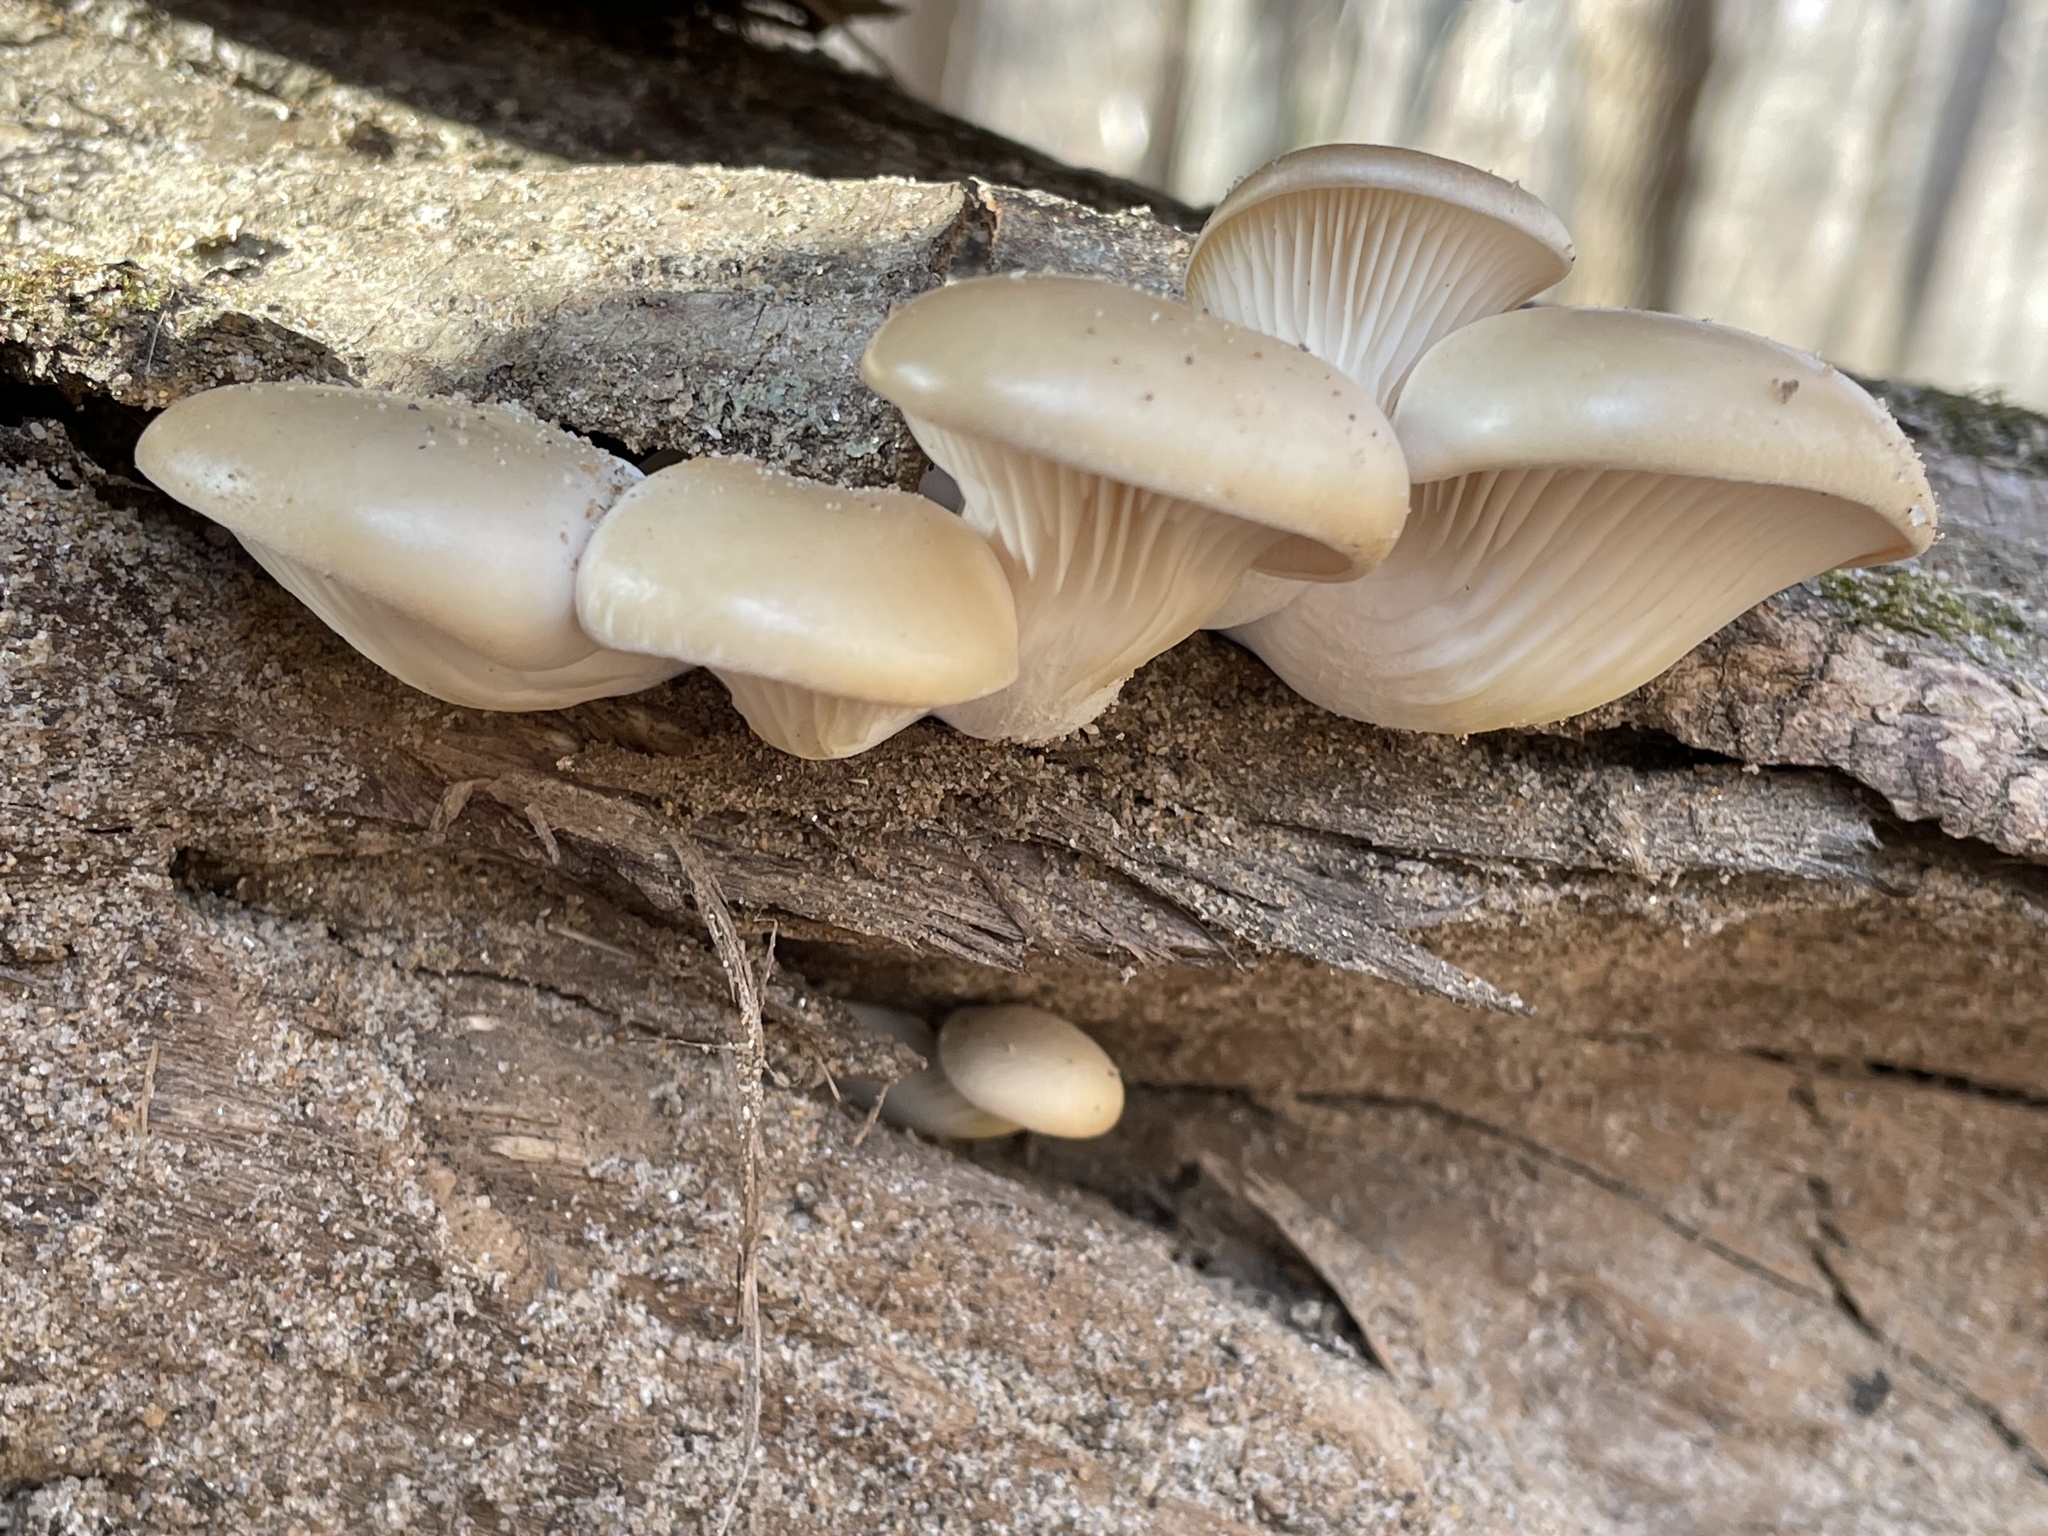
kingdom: Fungi
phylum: Basidiomycota
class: Agaricomycetes
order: Agaricales
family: Pleurotaceae
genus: Pleurotus
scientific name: Pleurotus ostreatus
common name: Oyster mushroom
